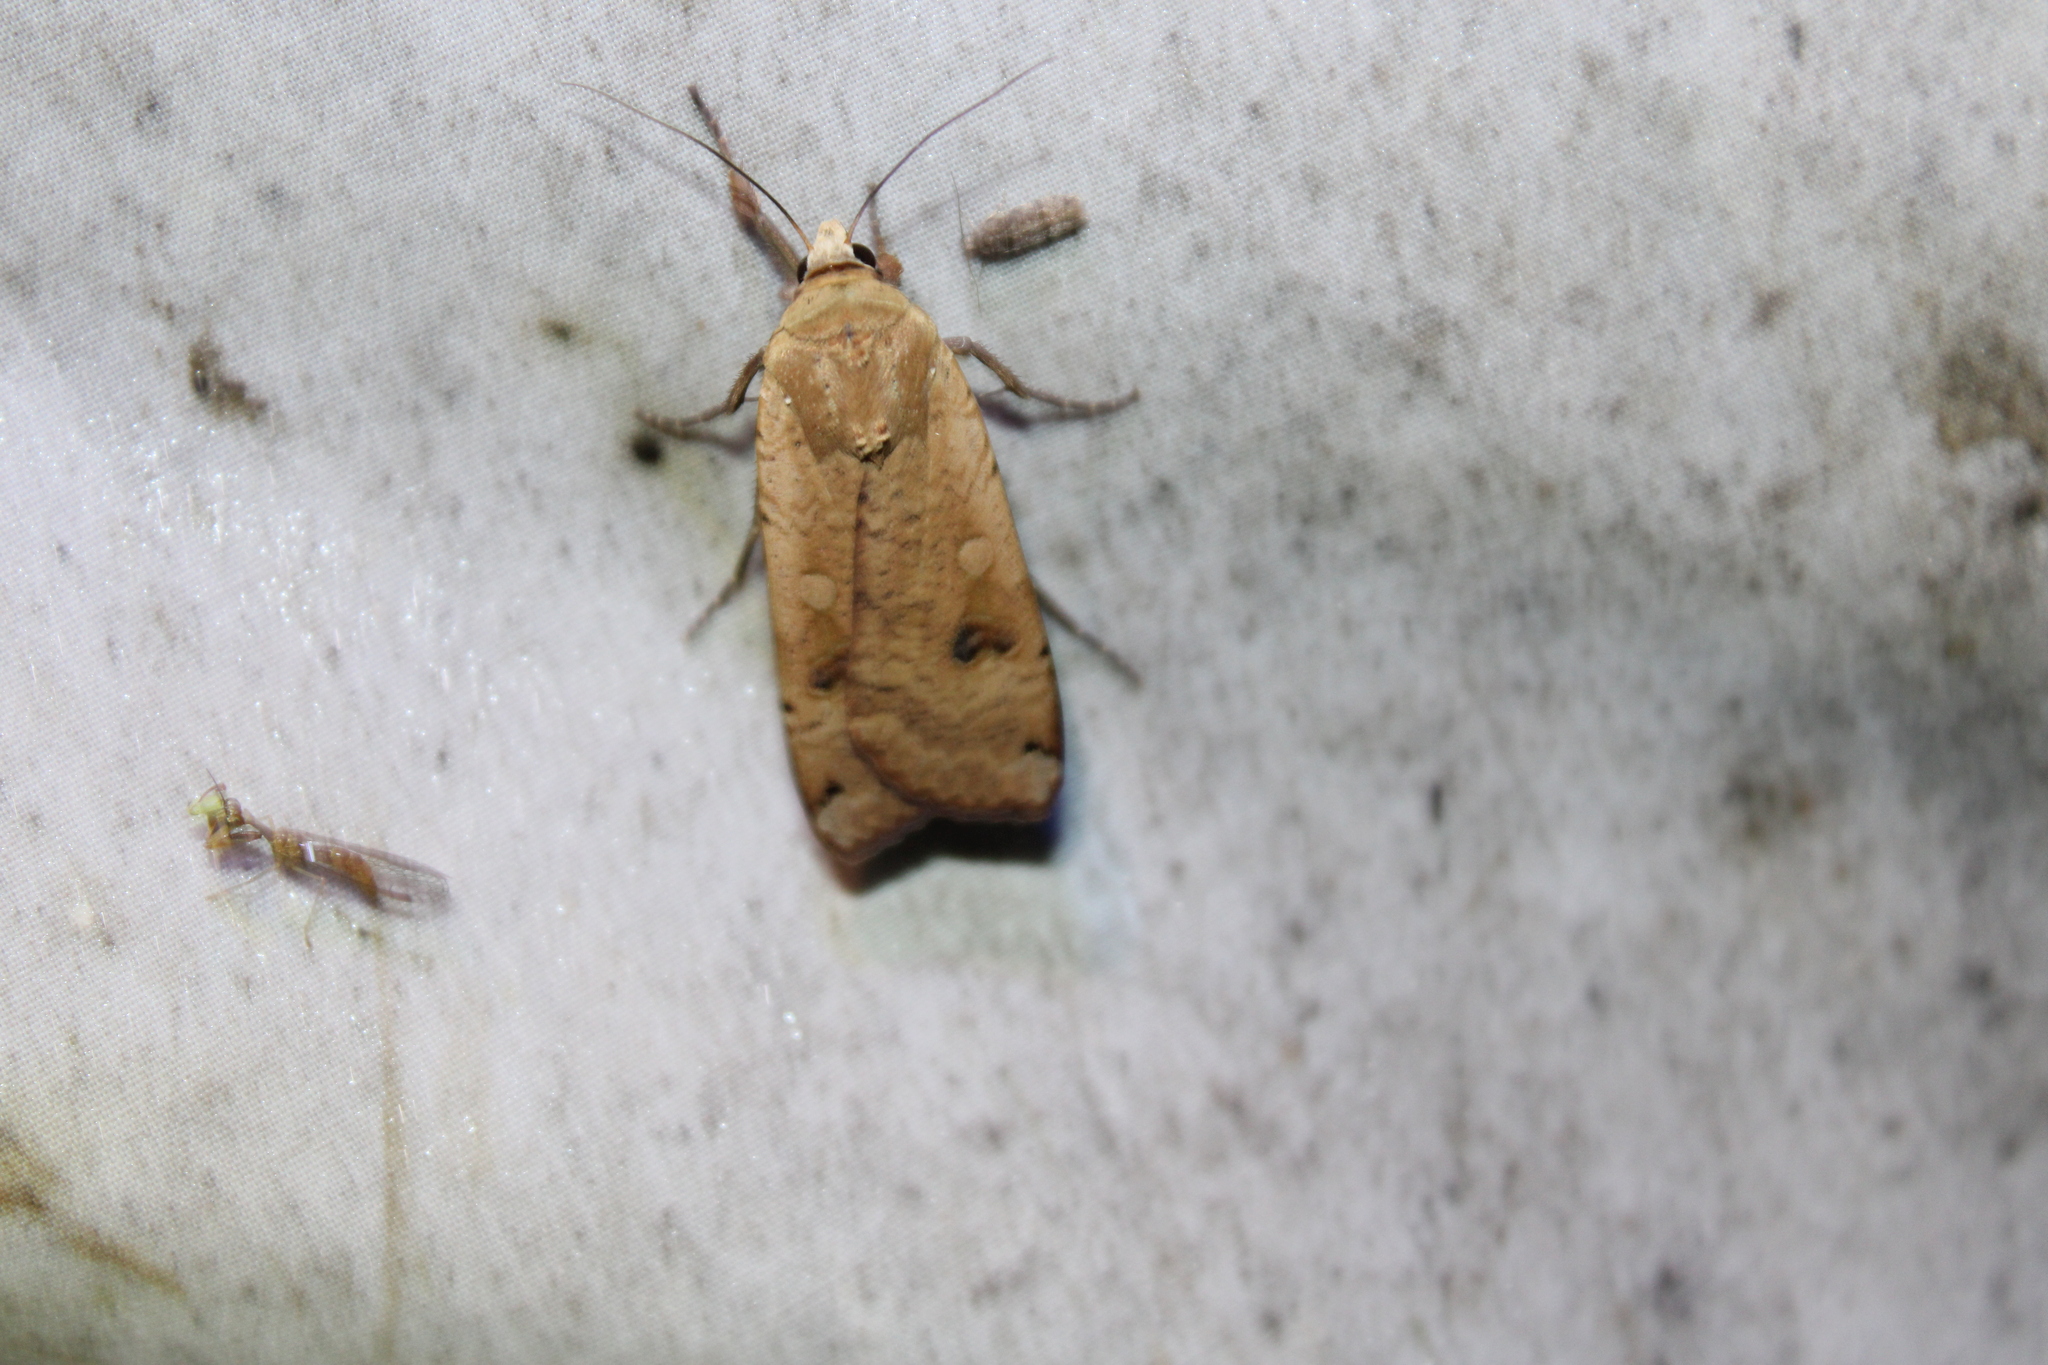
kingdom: Animalia
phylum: Arthropoda
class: Insecta
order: Lepidoptera
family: Noctuidae
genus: Noctua
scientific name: Noctua pronuba
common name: Large yellow underwing
